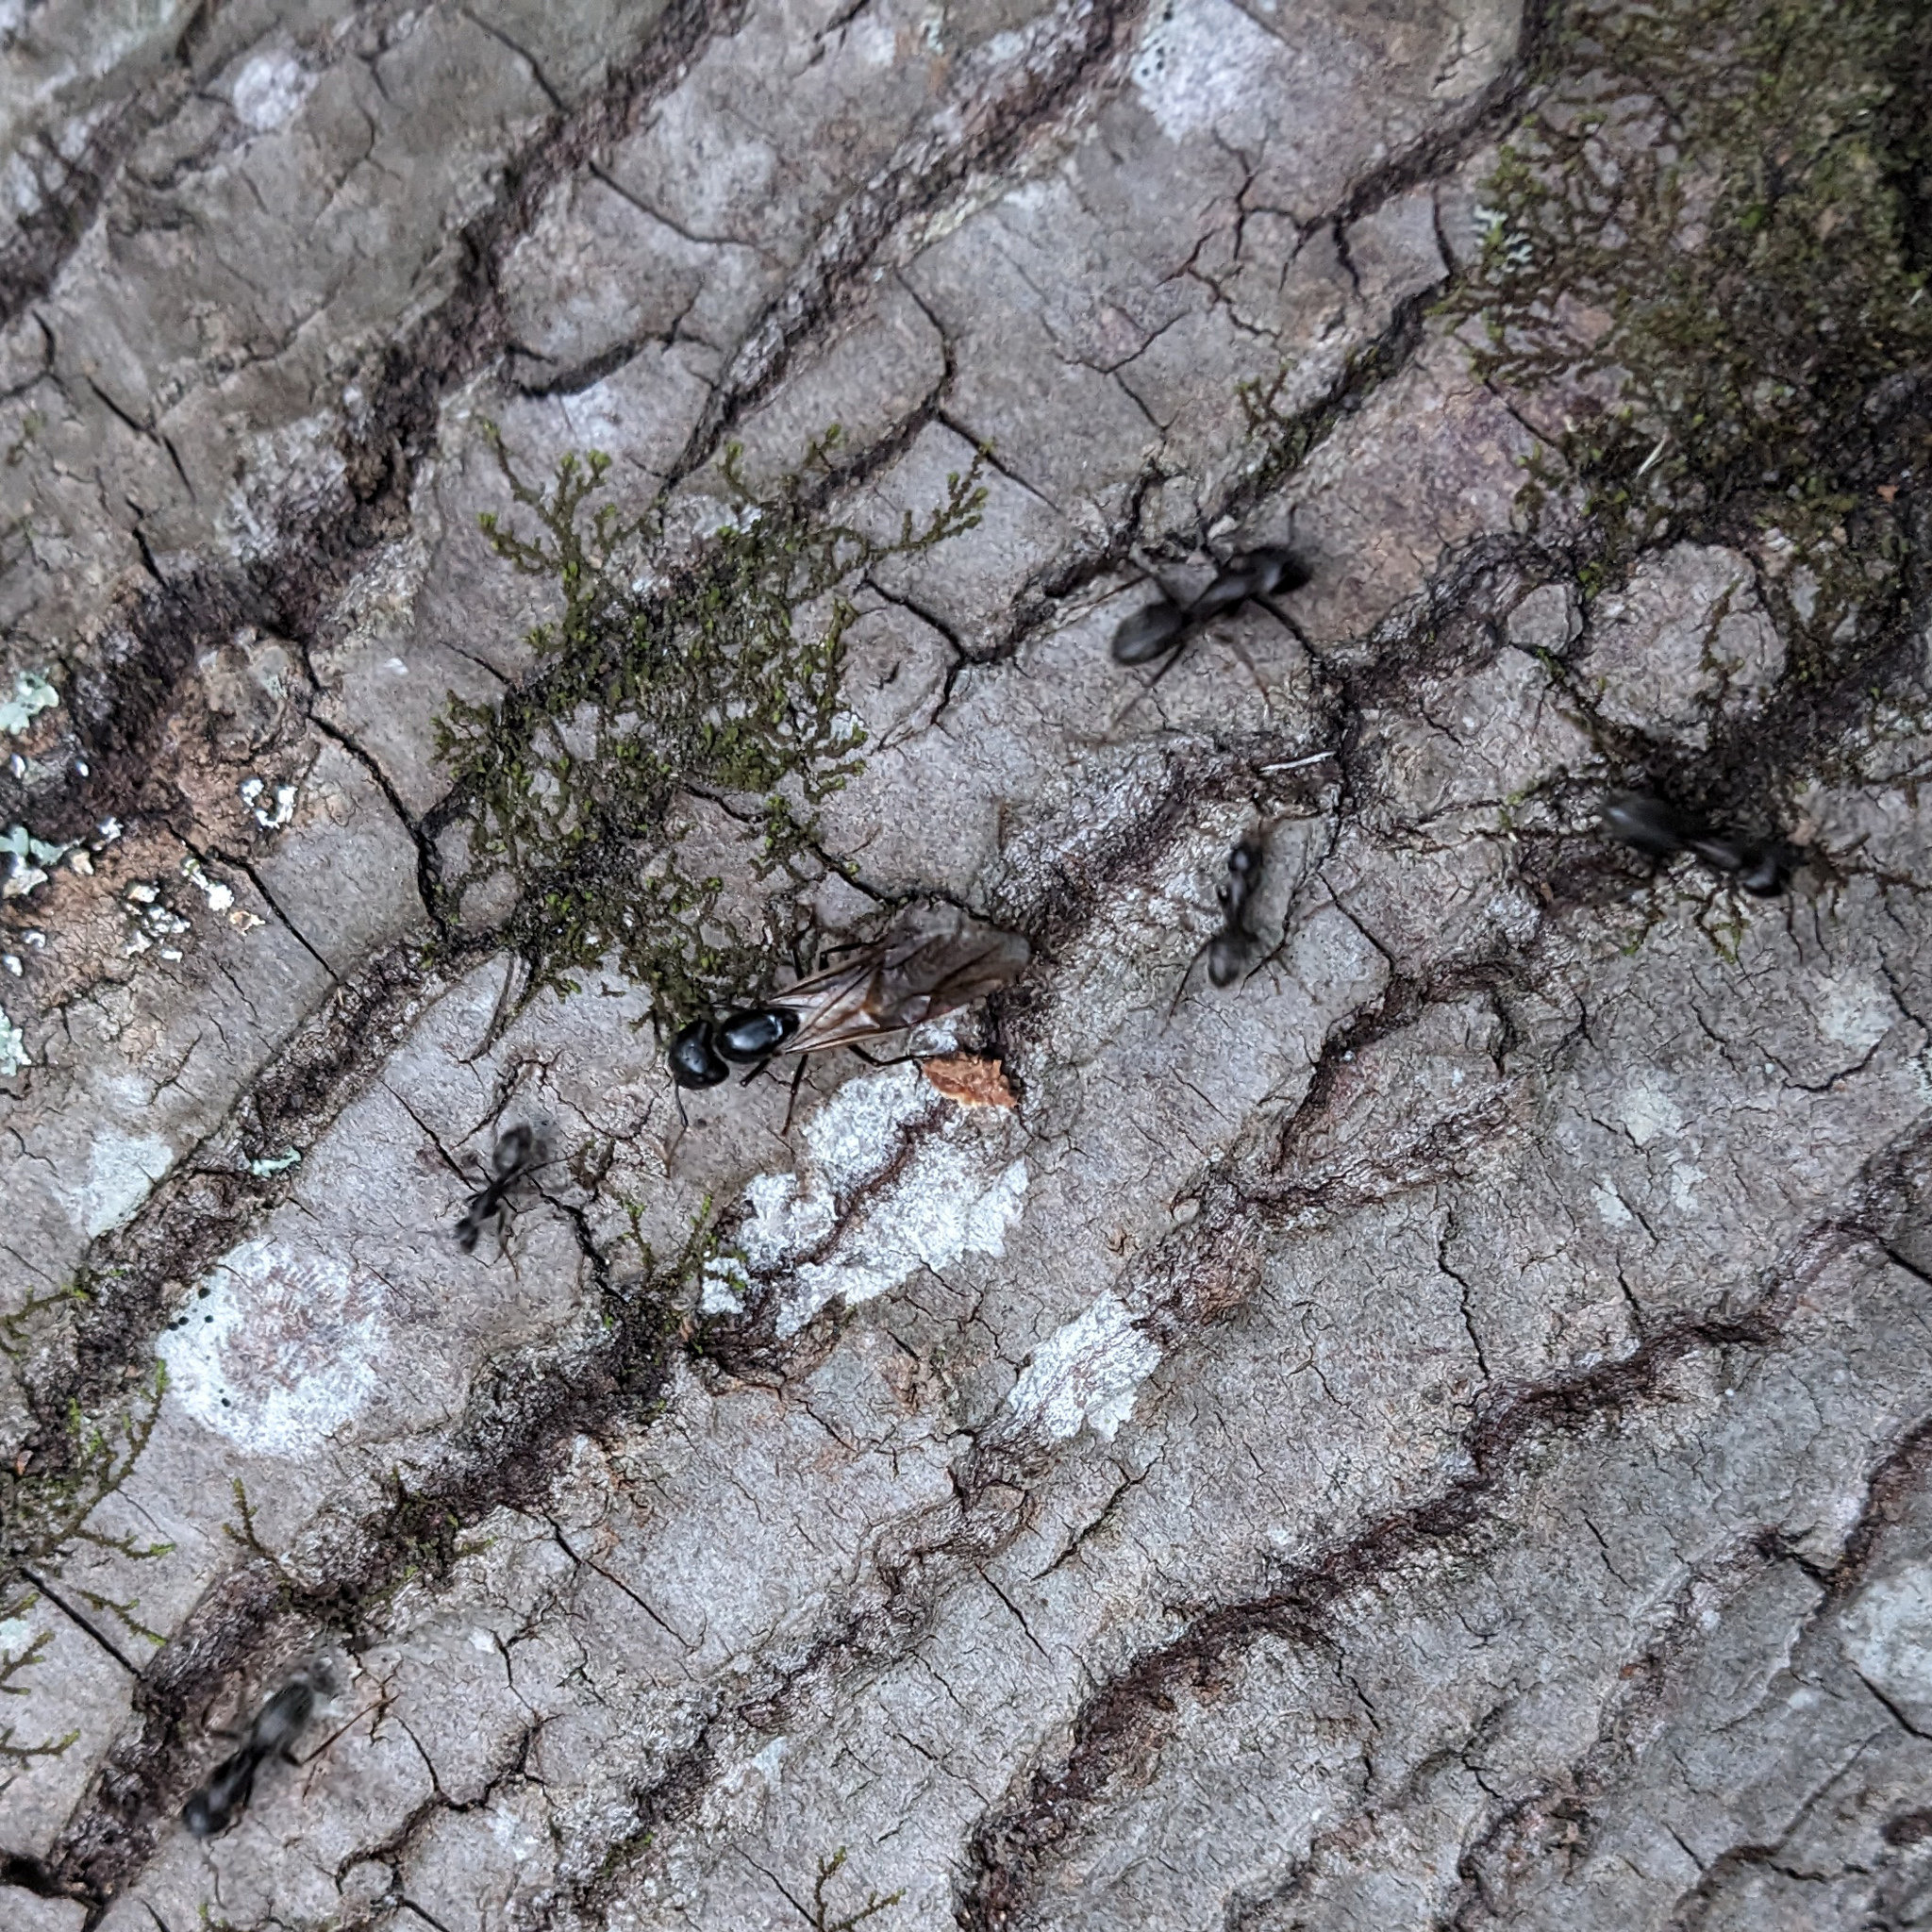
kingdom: Animalia
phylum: Arthropoda
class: Insecta
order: Hymenoptera
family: Formicidae
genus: Camponotus
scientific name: Camponotus pennsylvanicus
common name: Black carpenter ant
